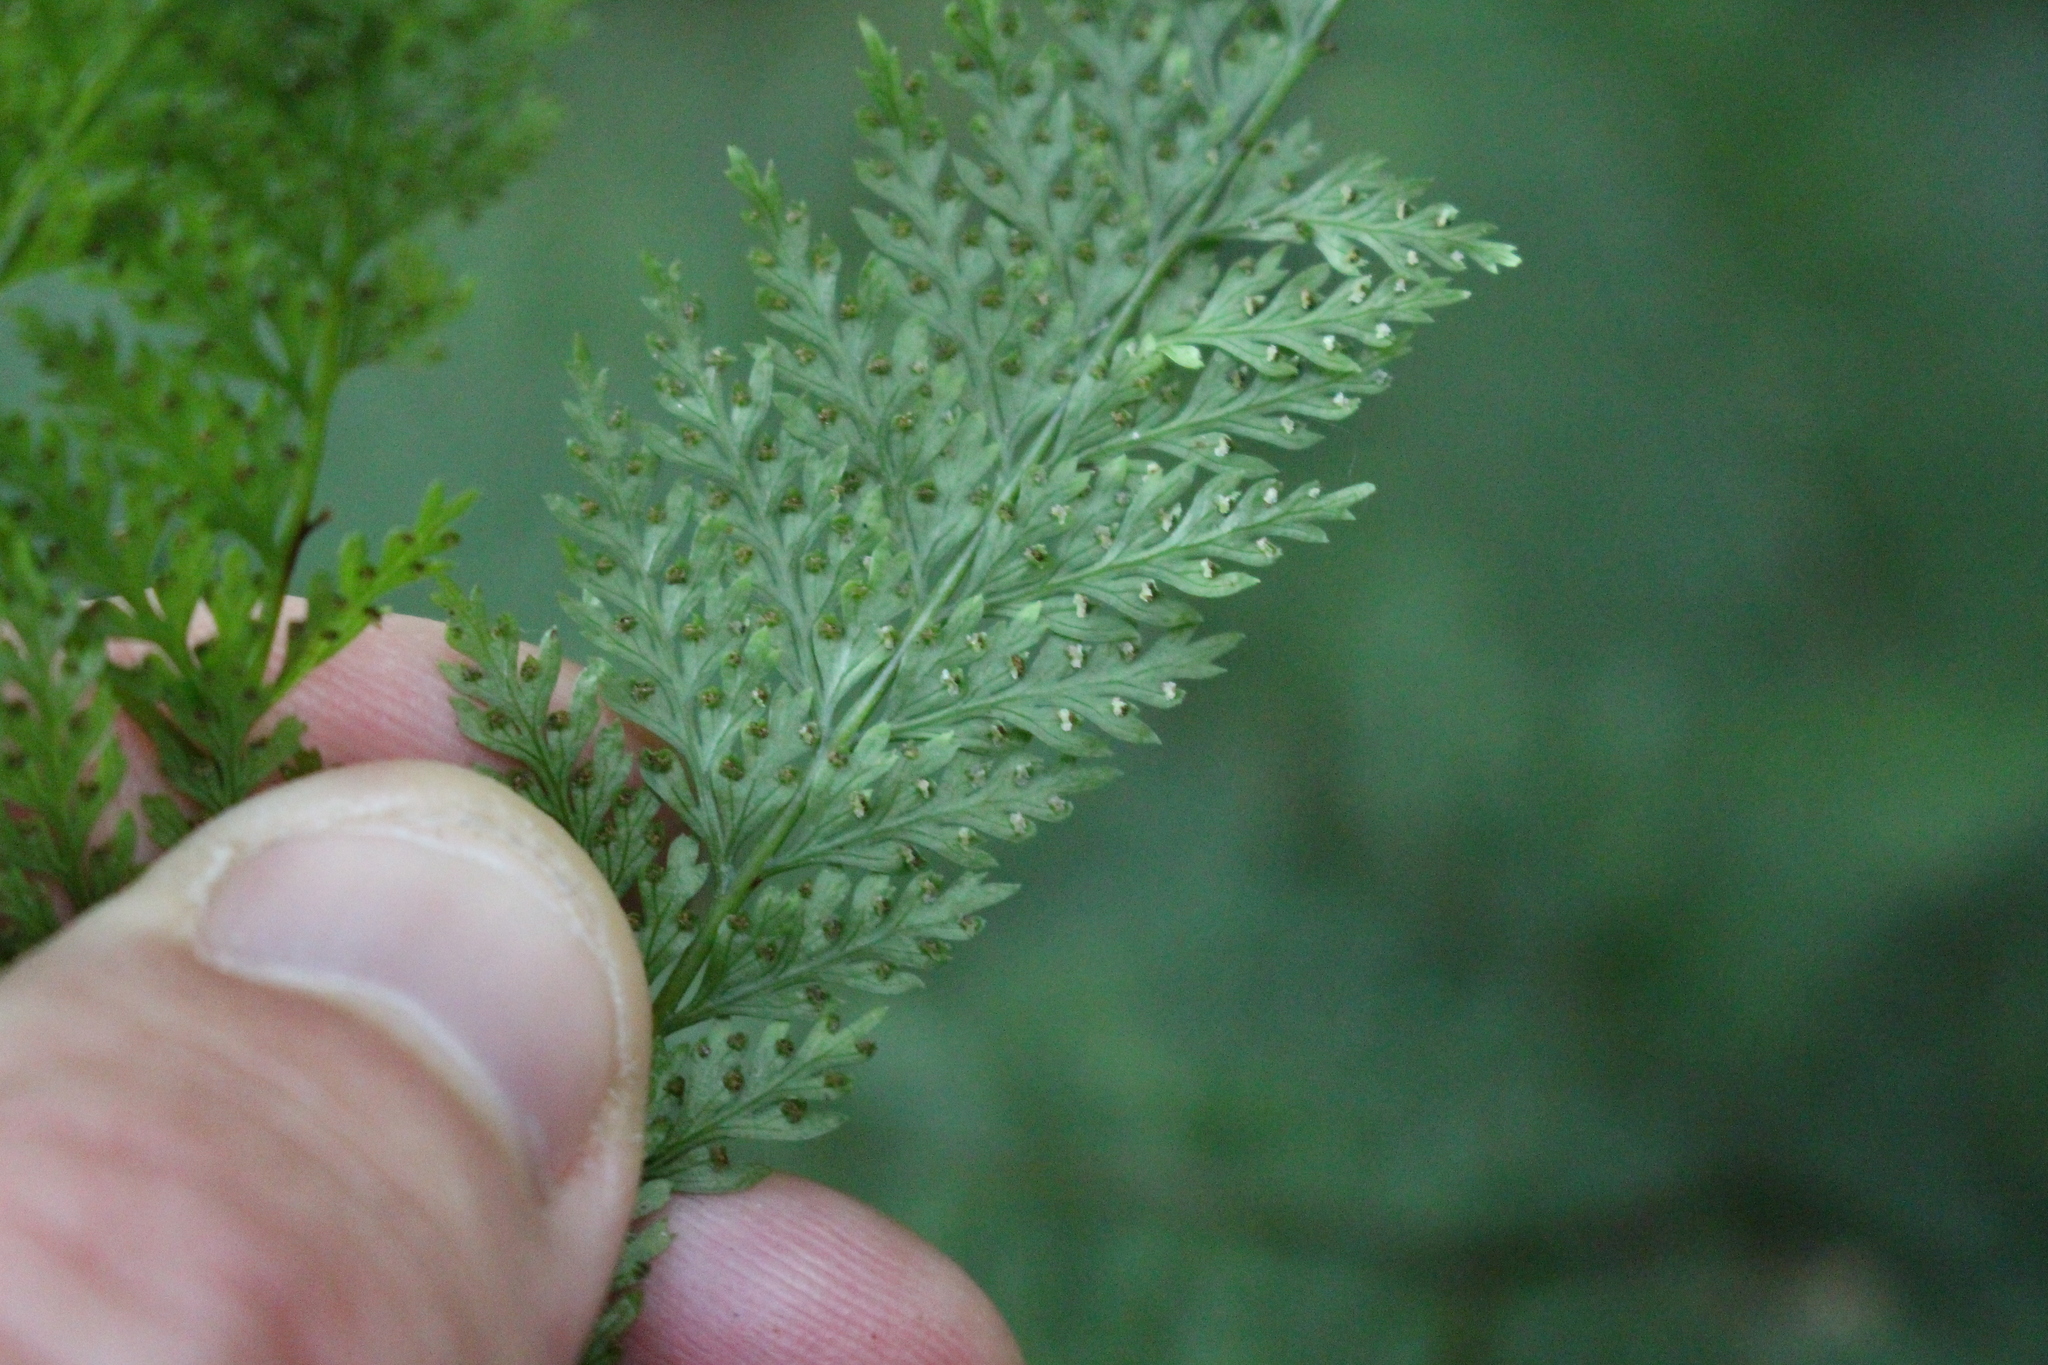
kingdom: Plantae
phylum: Tracheophyta
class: Polypodiopsida
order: Polypodiales
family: Dennstaedtiaceae
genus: Dennstaedtia
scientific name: Dennstaedtia novae-zelandiae
